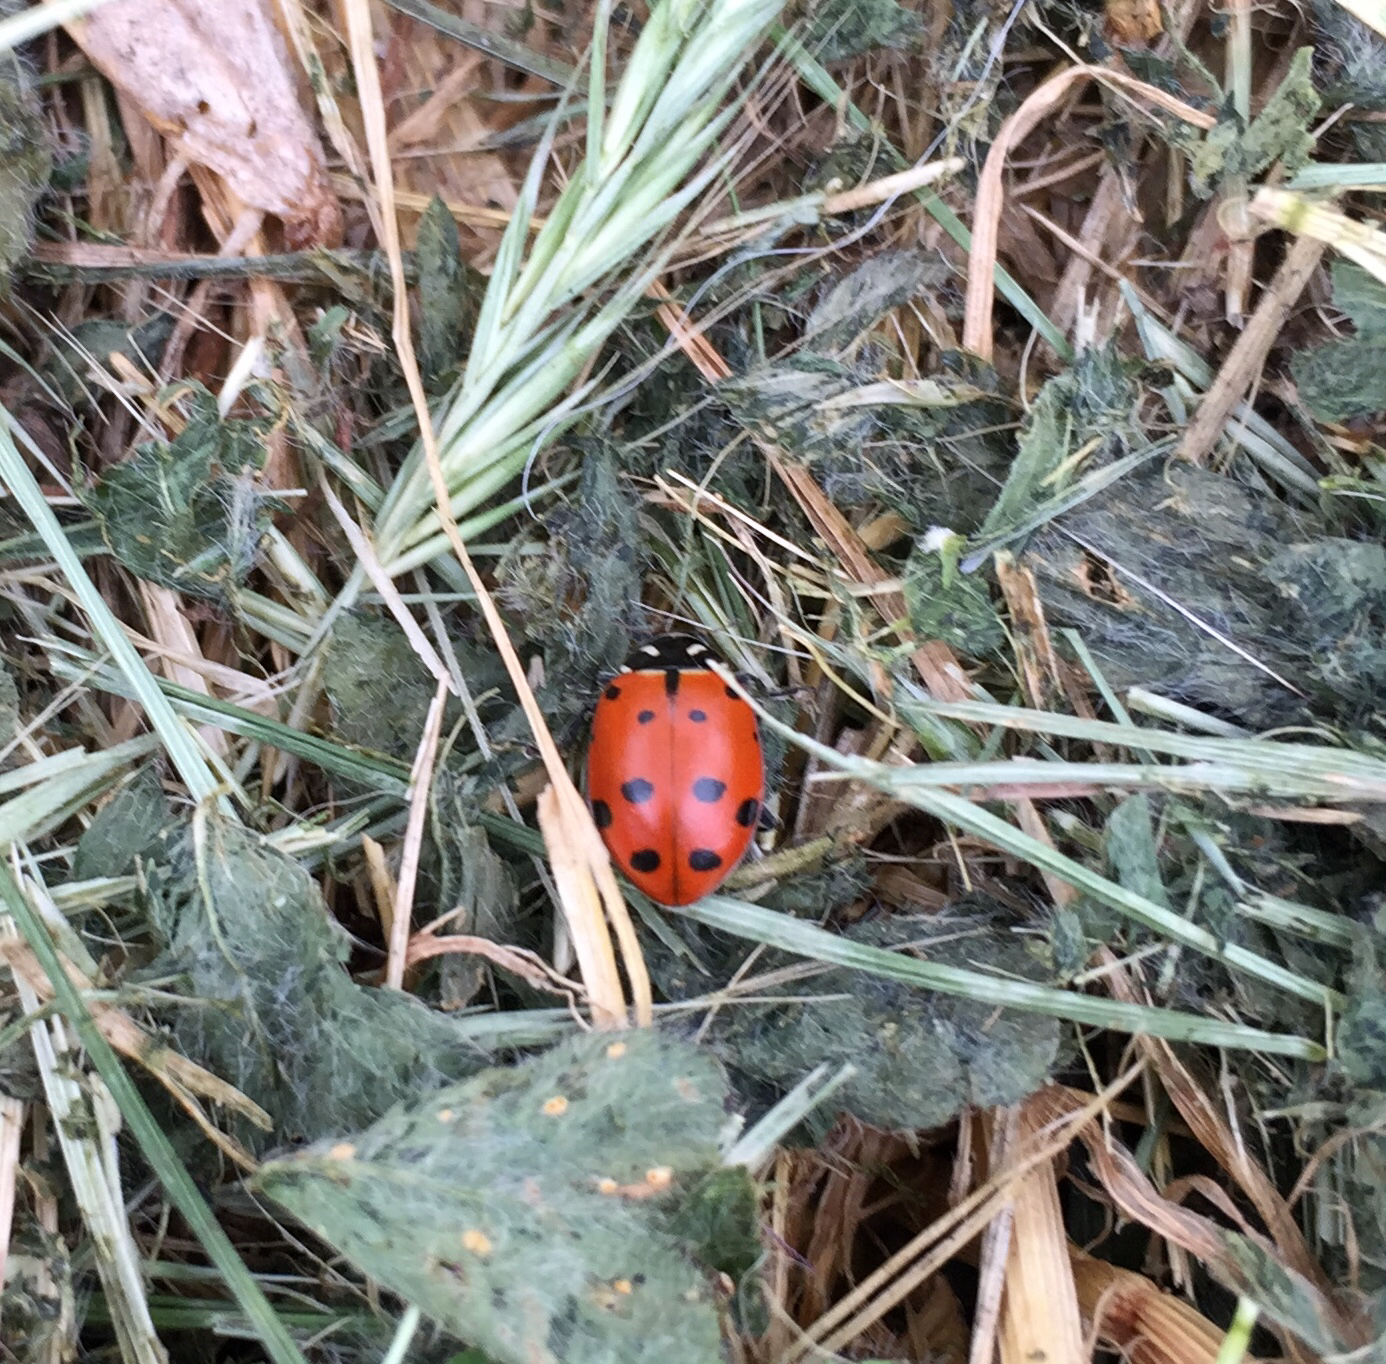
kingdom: Animalia
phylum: Arthropoda
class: Insecta
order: Coleoptera
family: Coccinellidae
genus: Hippodamia
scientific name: Hippodamia convergens
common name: Convergent lady beetle
